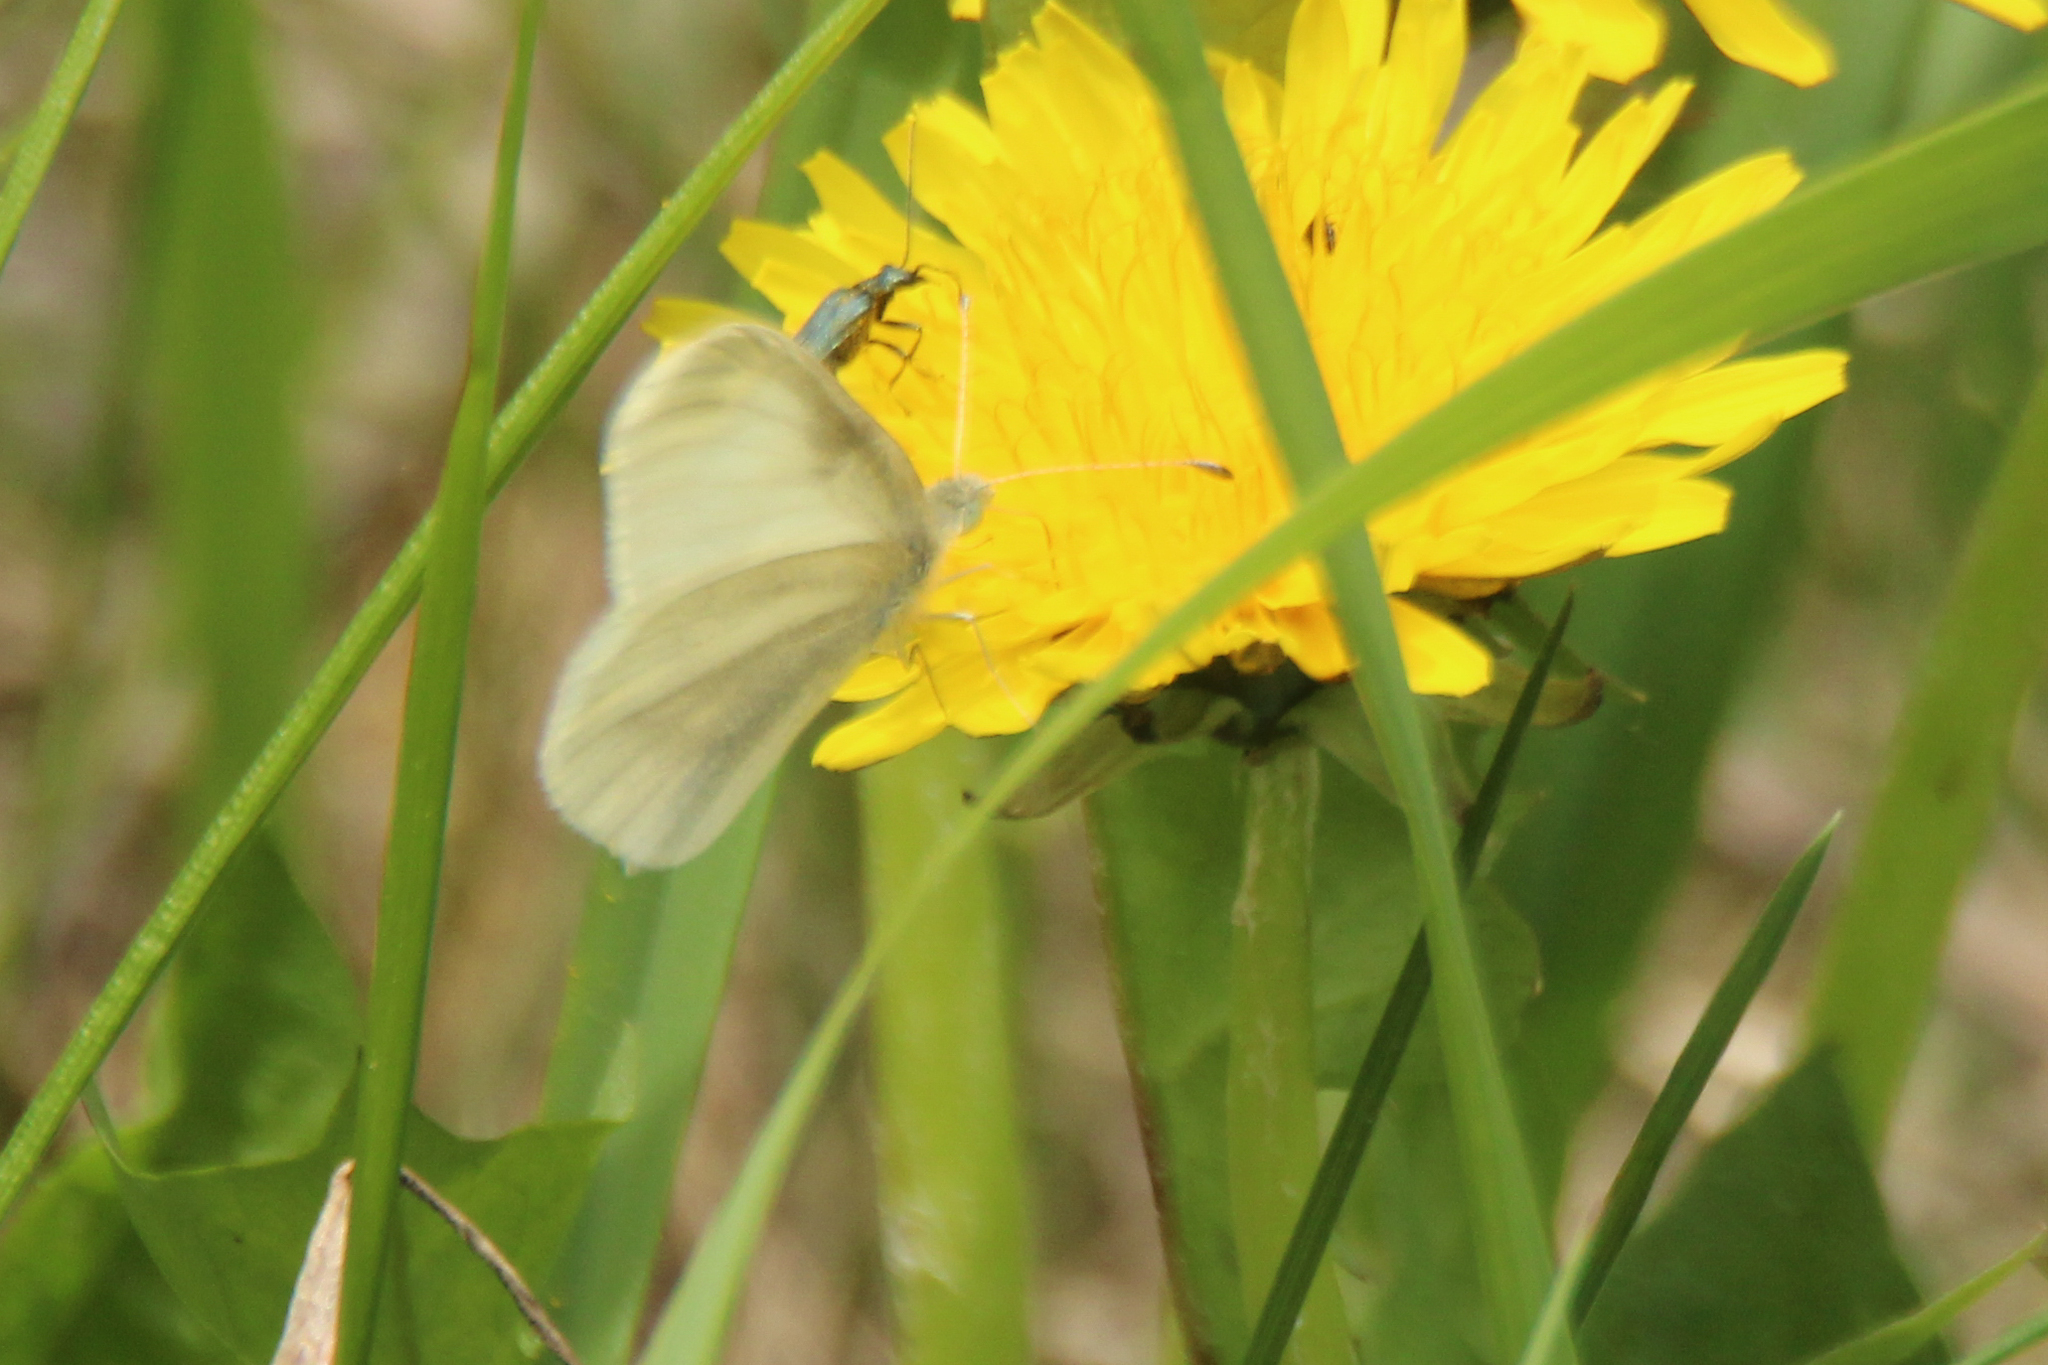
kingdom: Animalia
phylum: Arthropoda
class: Insecta
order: Lepidoptera
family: Pieridae
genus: Leptidea
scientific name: Leptidea morsei
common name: Fenton's wood white
